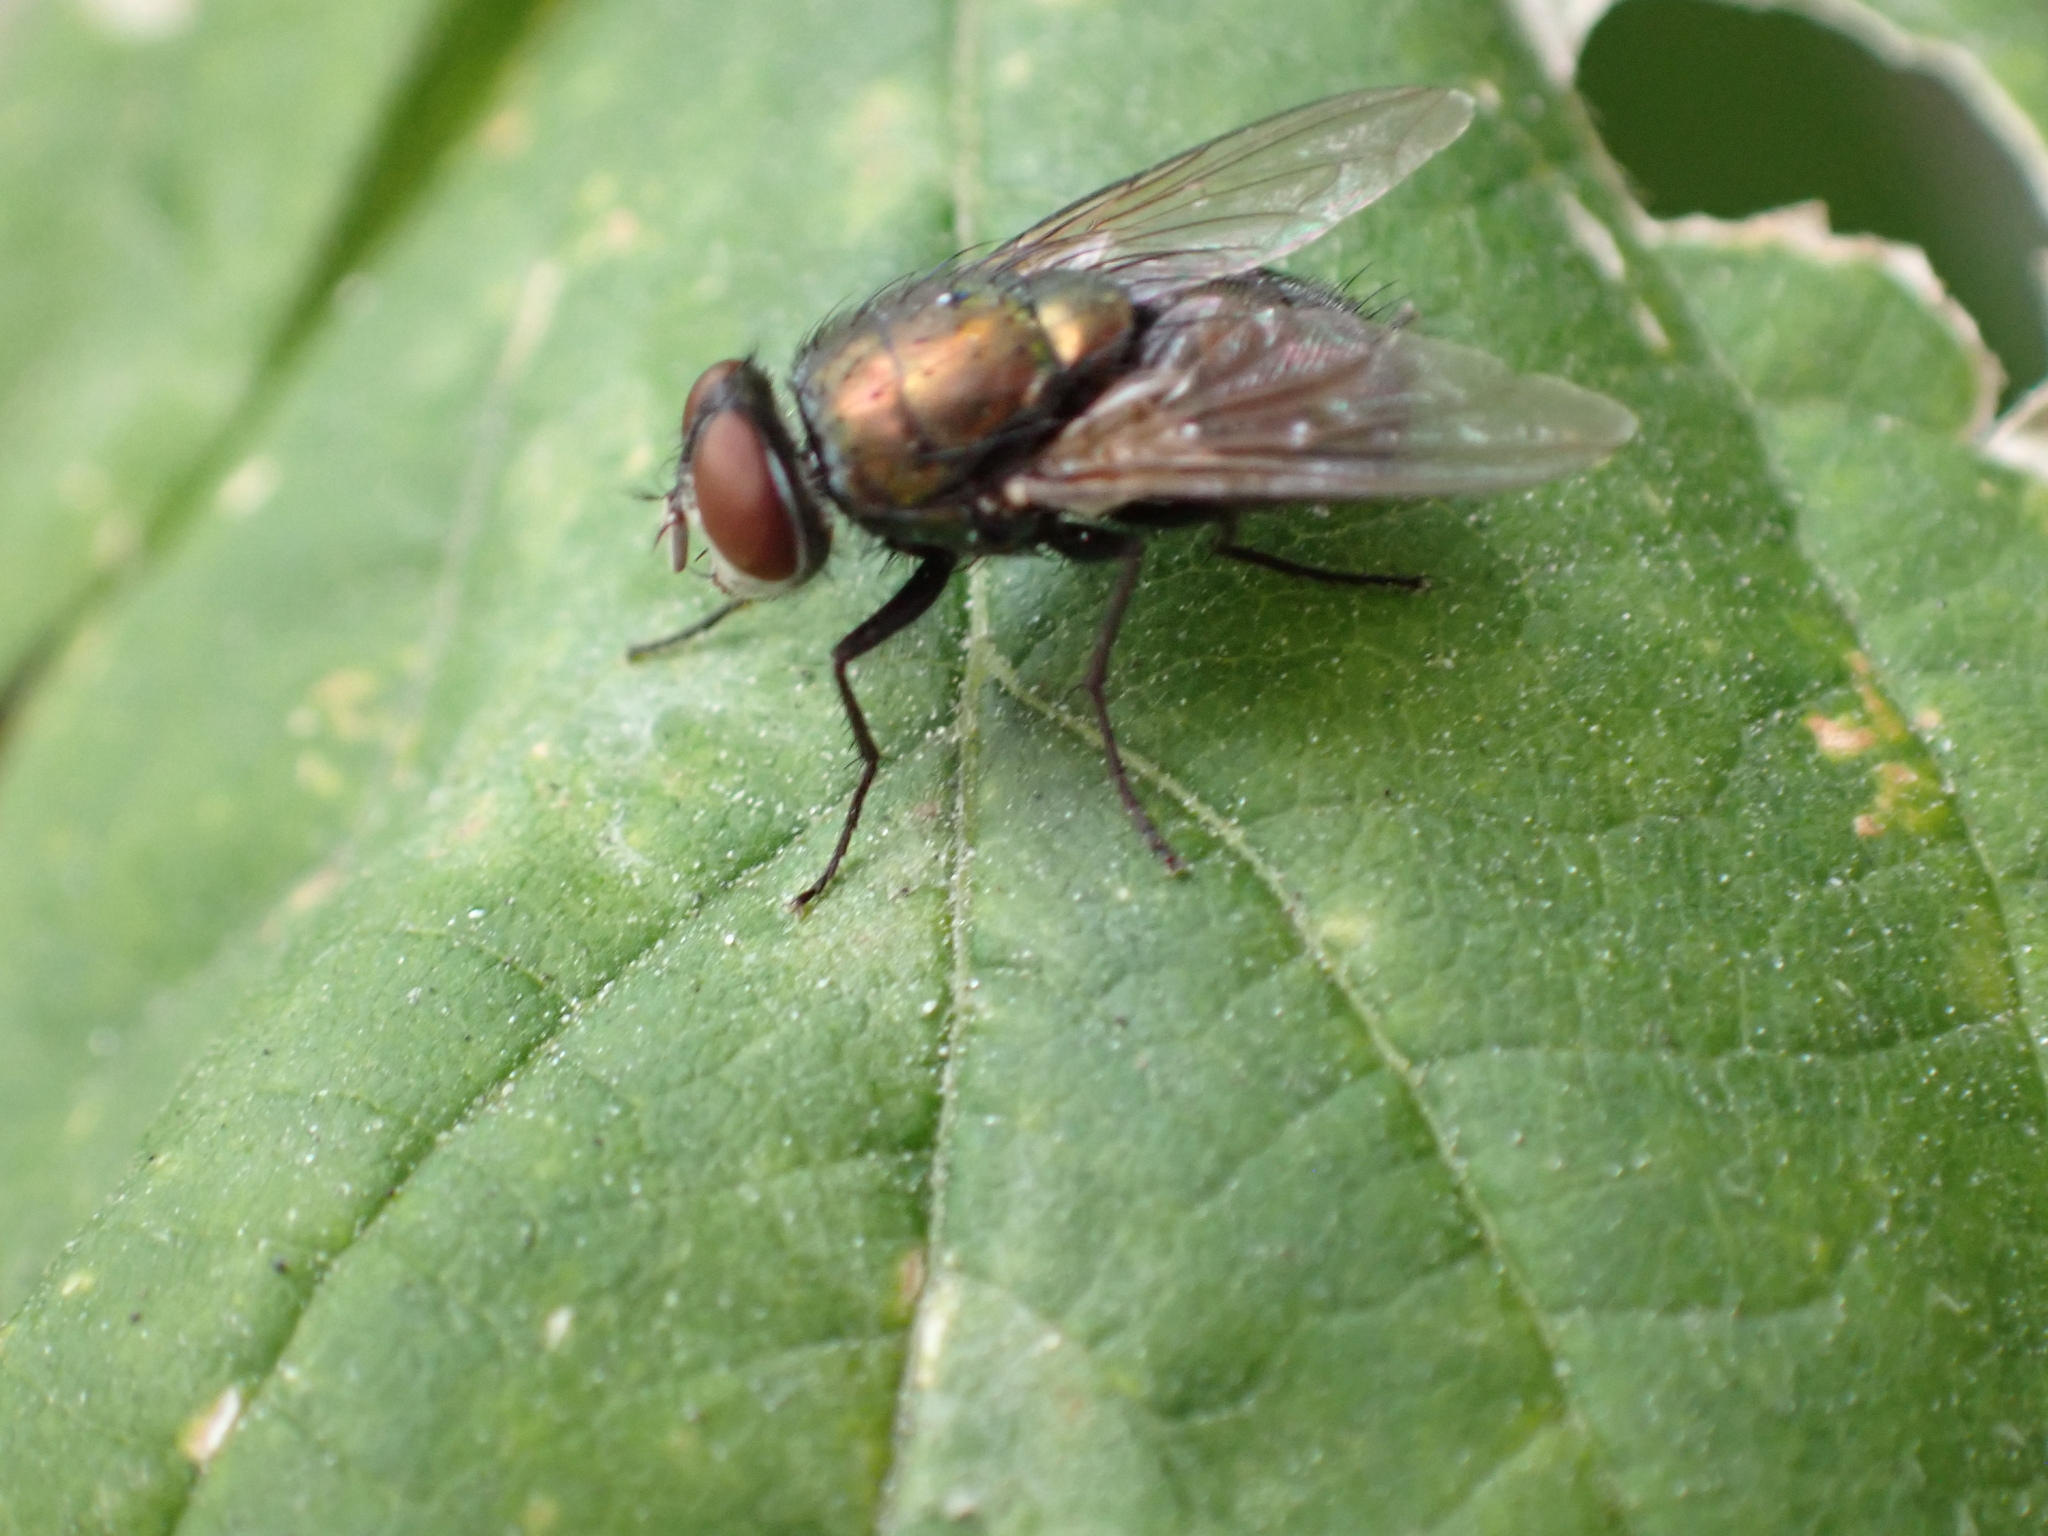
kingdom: Animalia
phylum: Arthropoda
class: Insecta
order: Diptera
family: Calliphoridae
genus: Lucilia
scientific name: Lucilia sericata
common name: Blow fly
